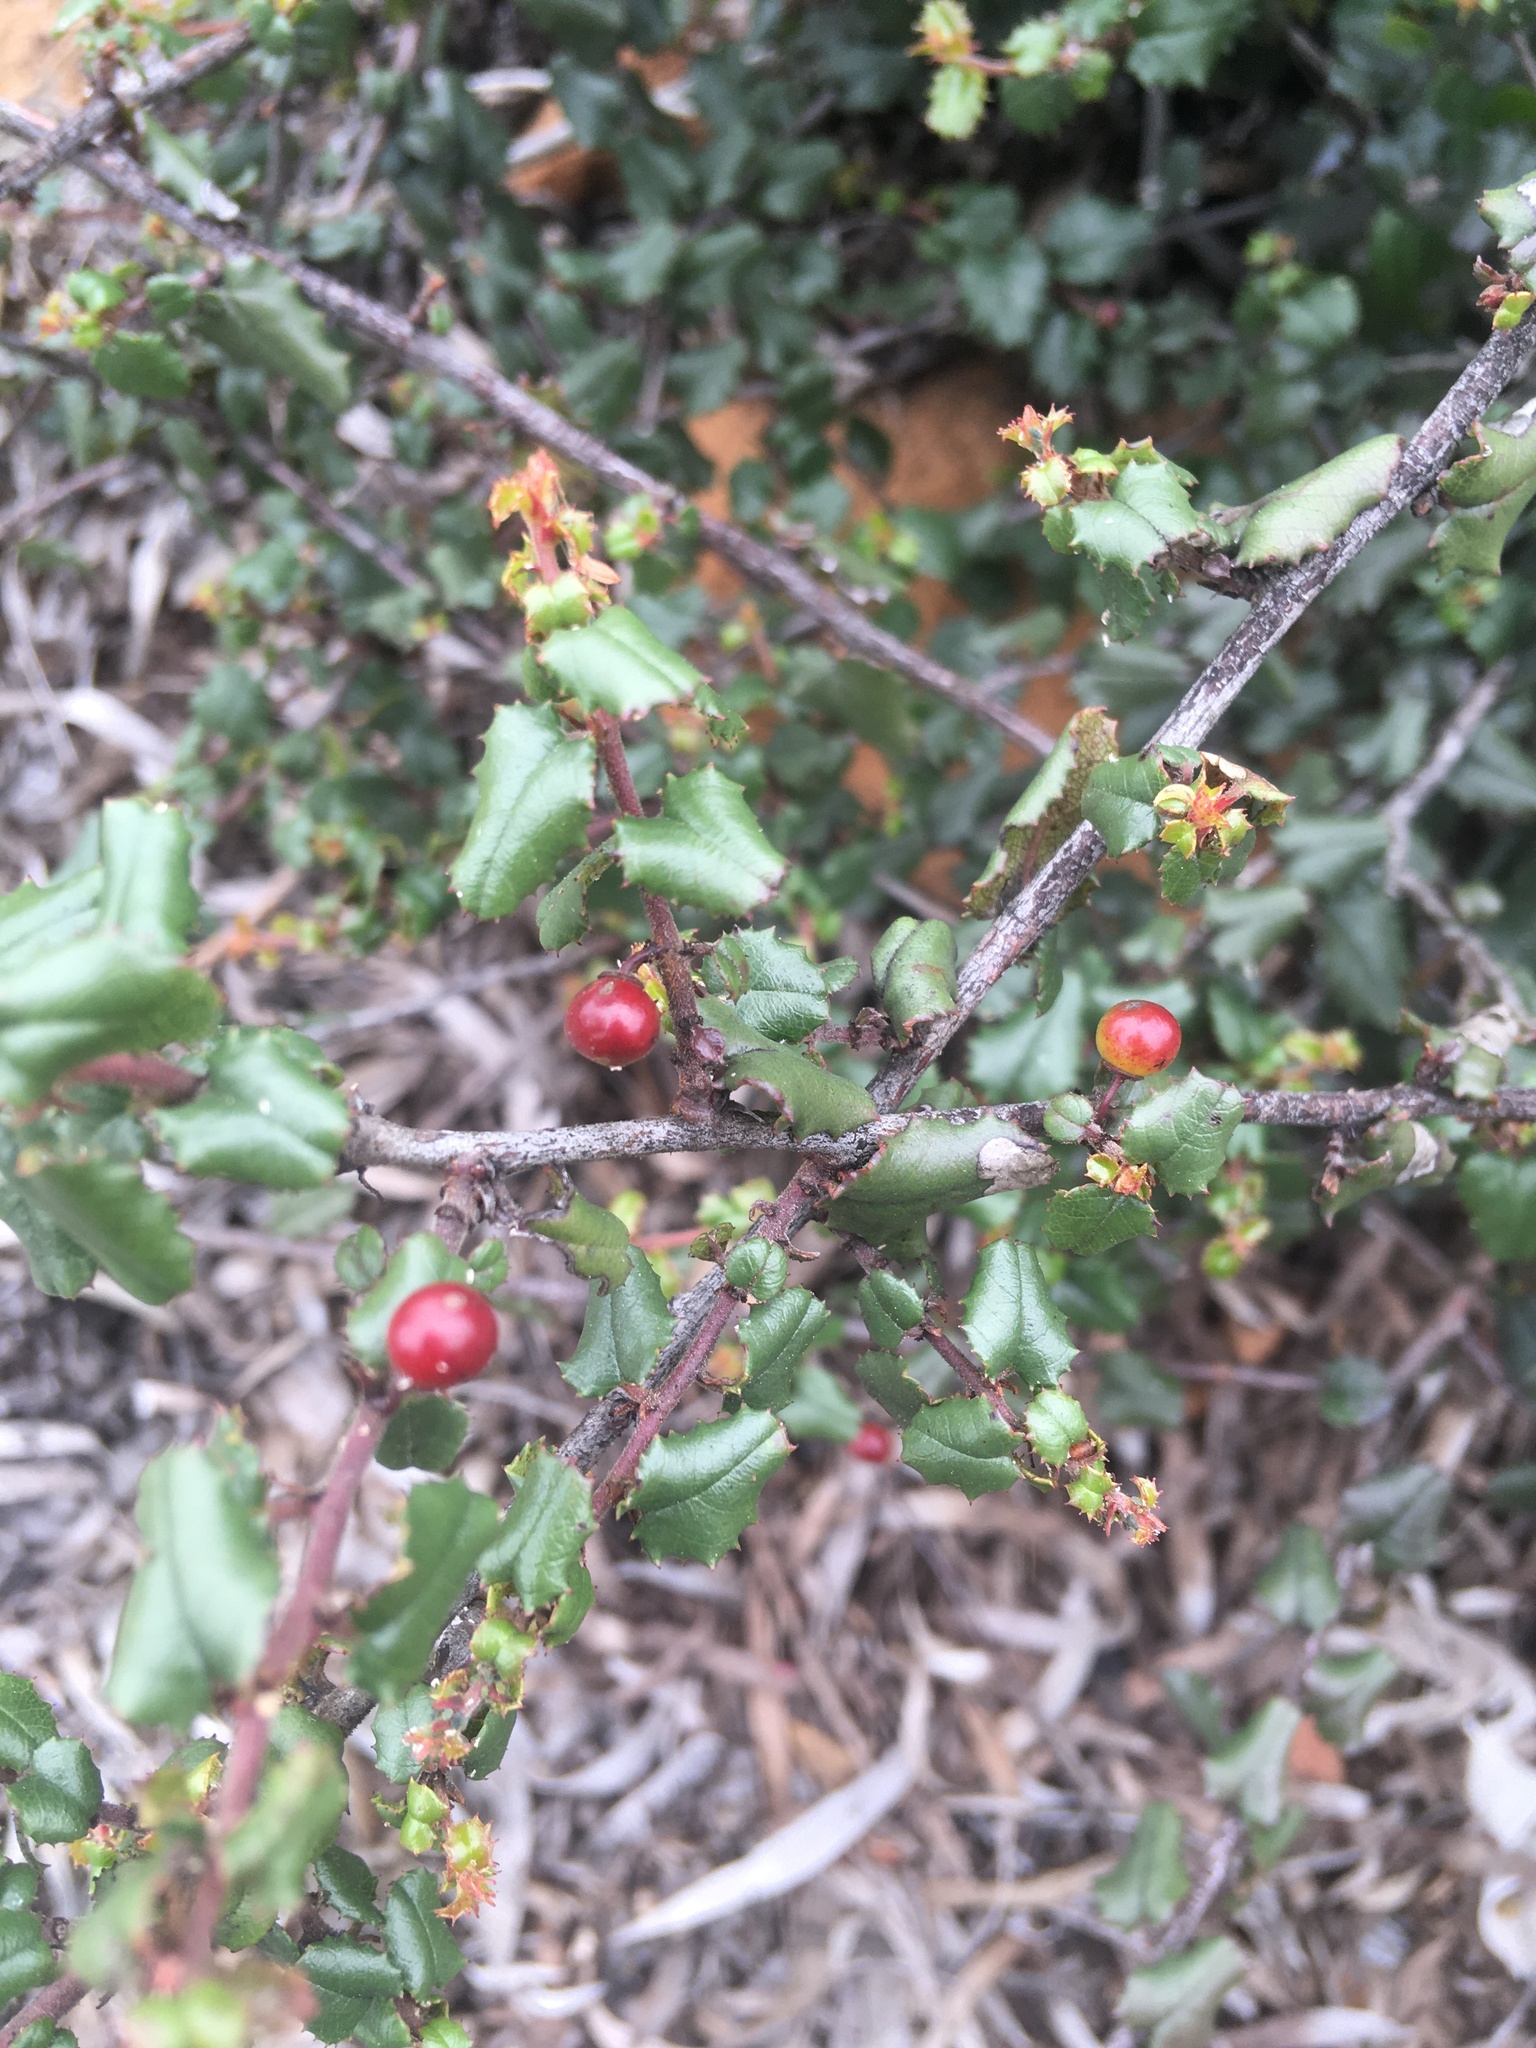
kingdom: Plantae
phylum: Tracheophyta
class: Magnoliopsida
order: Rosales
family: Rhamnaceae
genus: Endotropis
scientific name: Endotropis crocea
